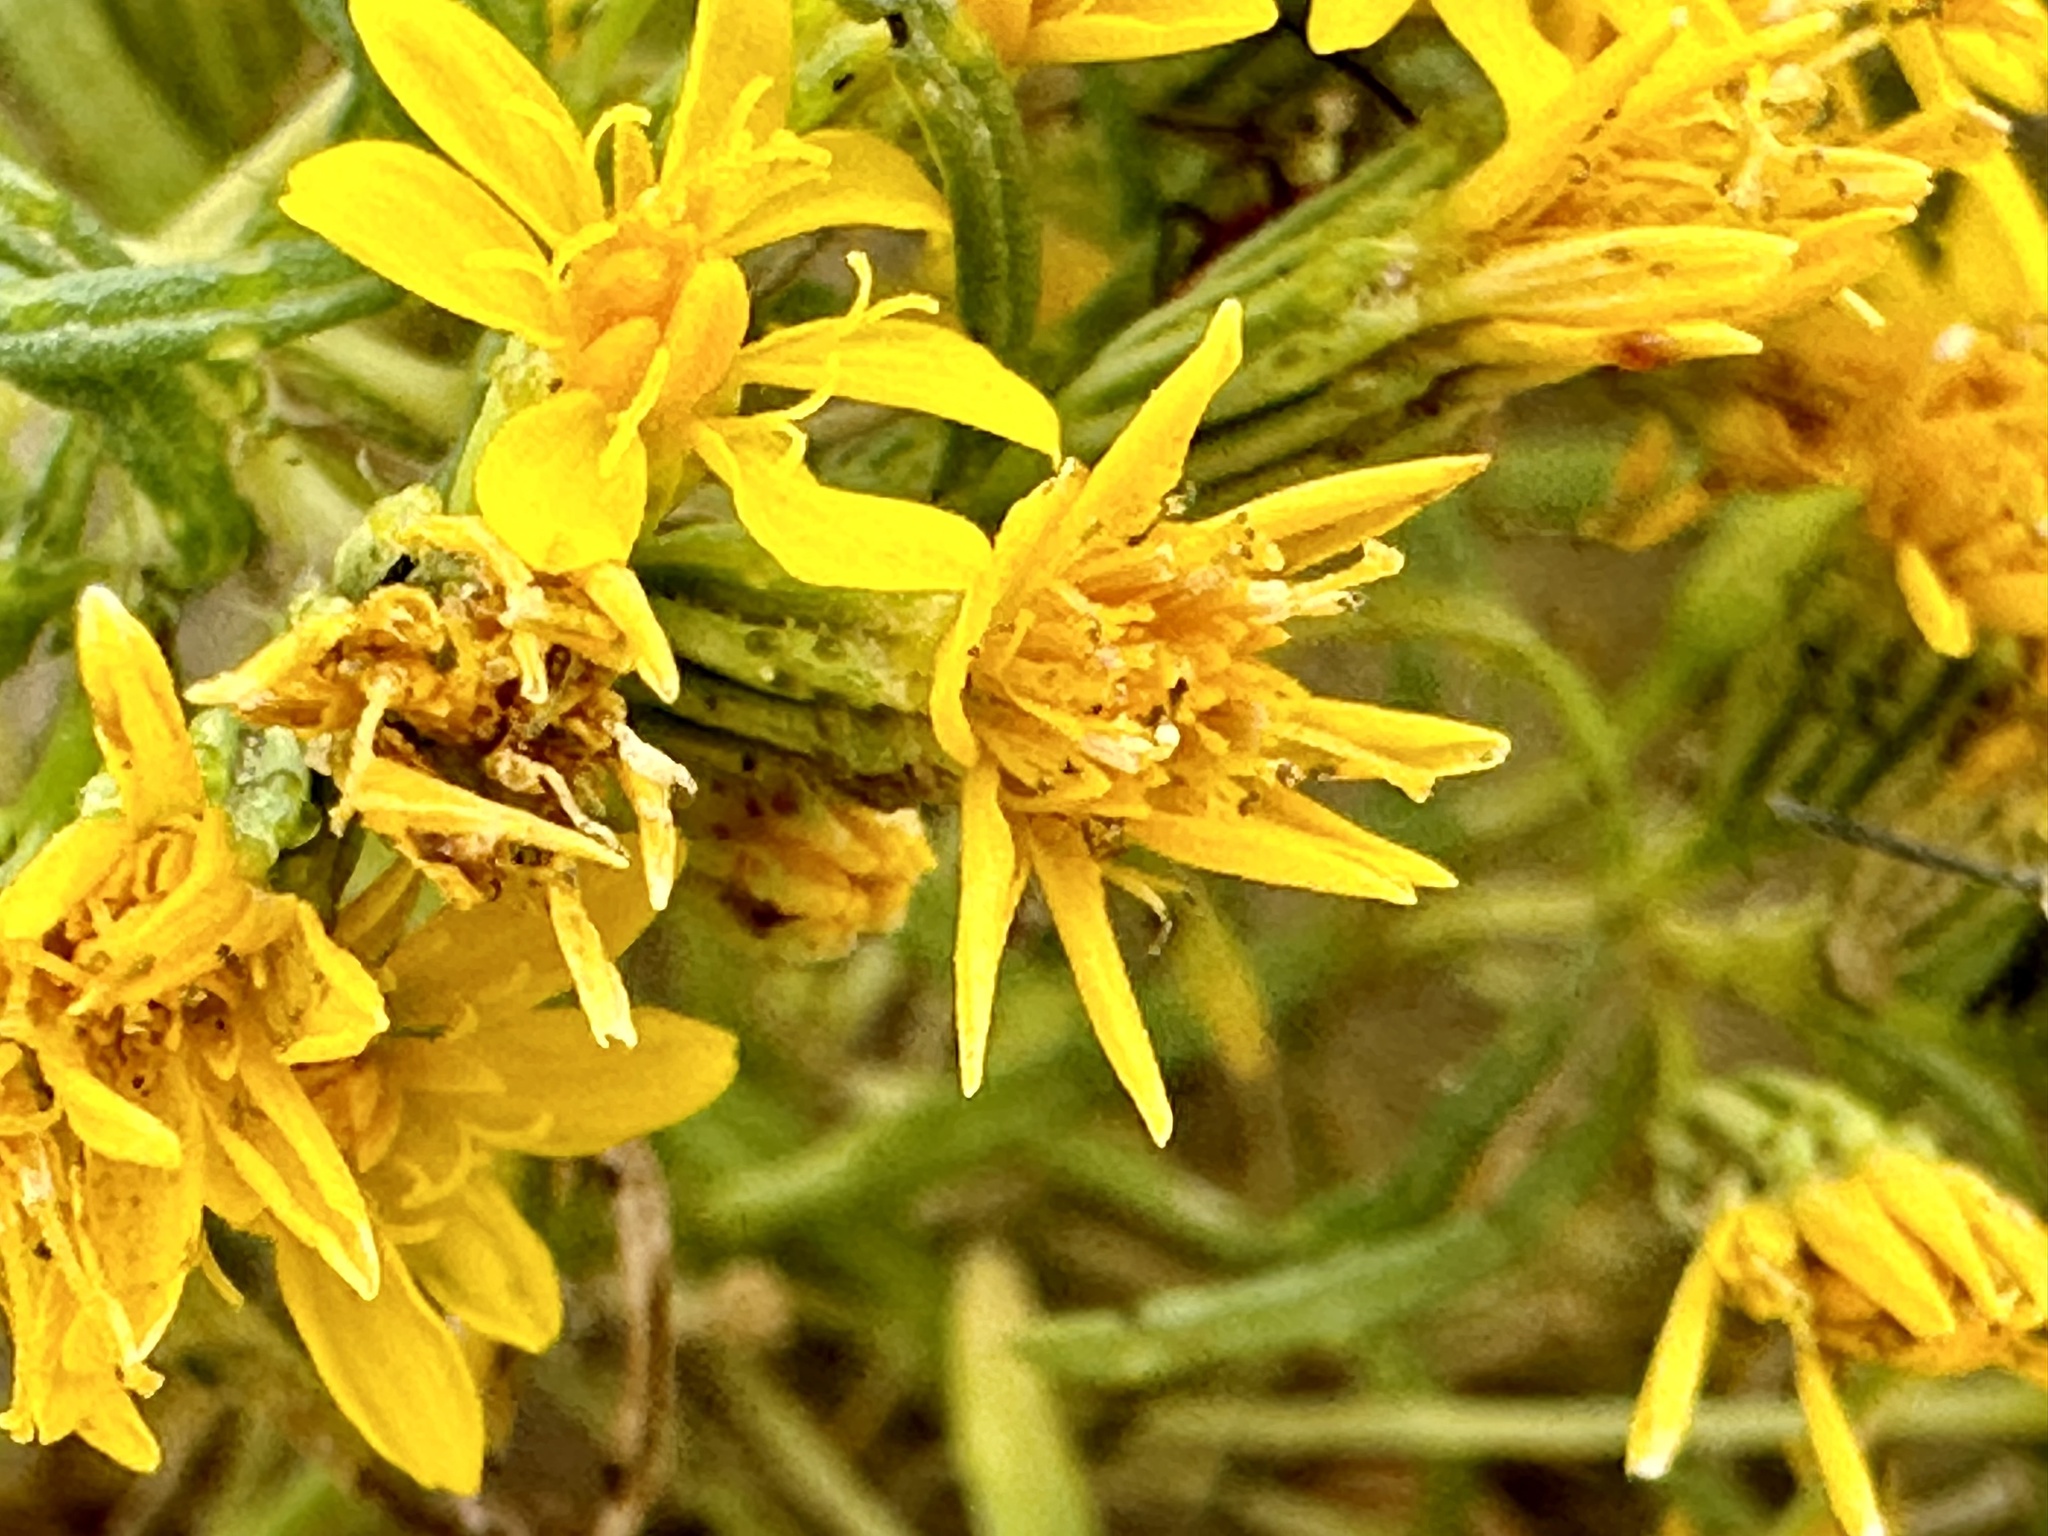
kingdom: Plantae
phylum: Tracheophyta
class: Magnoliopsida
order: Asterales
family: Asteraceae
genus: Pectis
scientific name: Pectis papposa
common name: Many-bristle chinchweed
